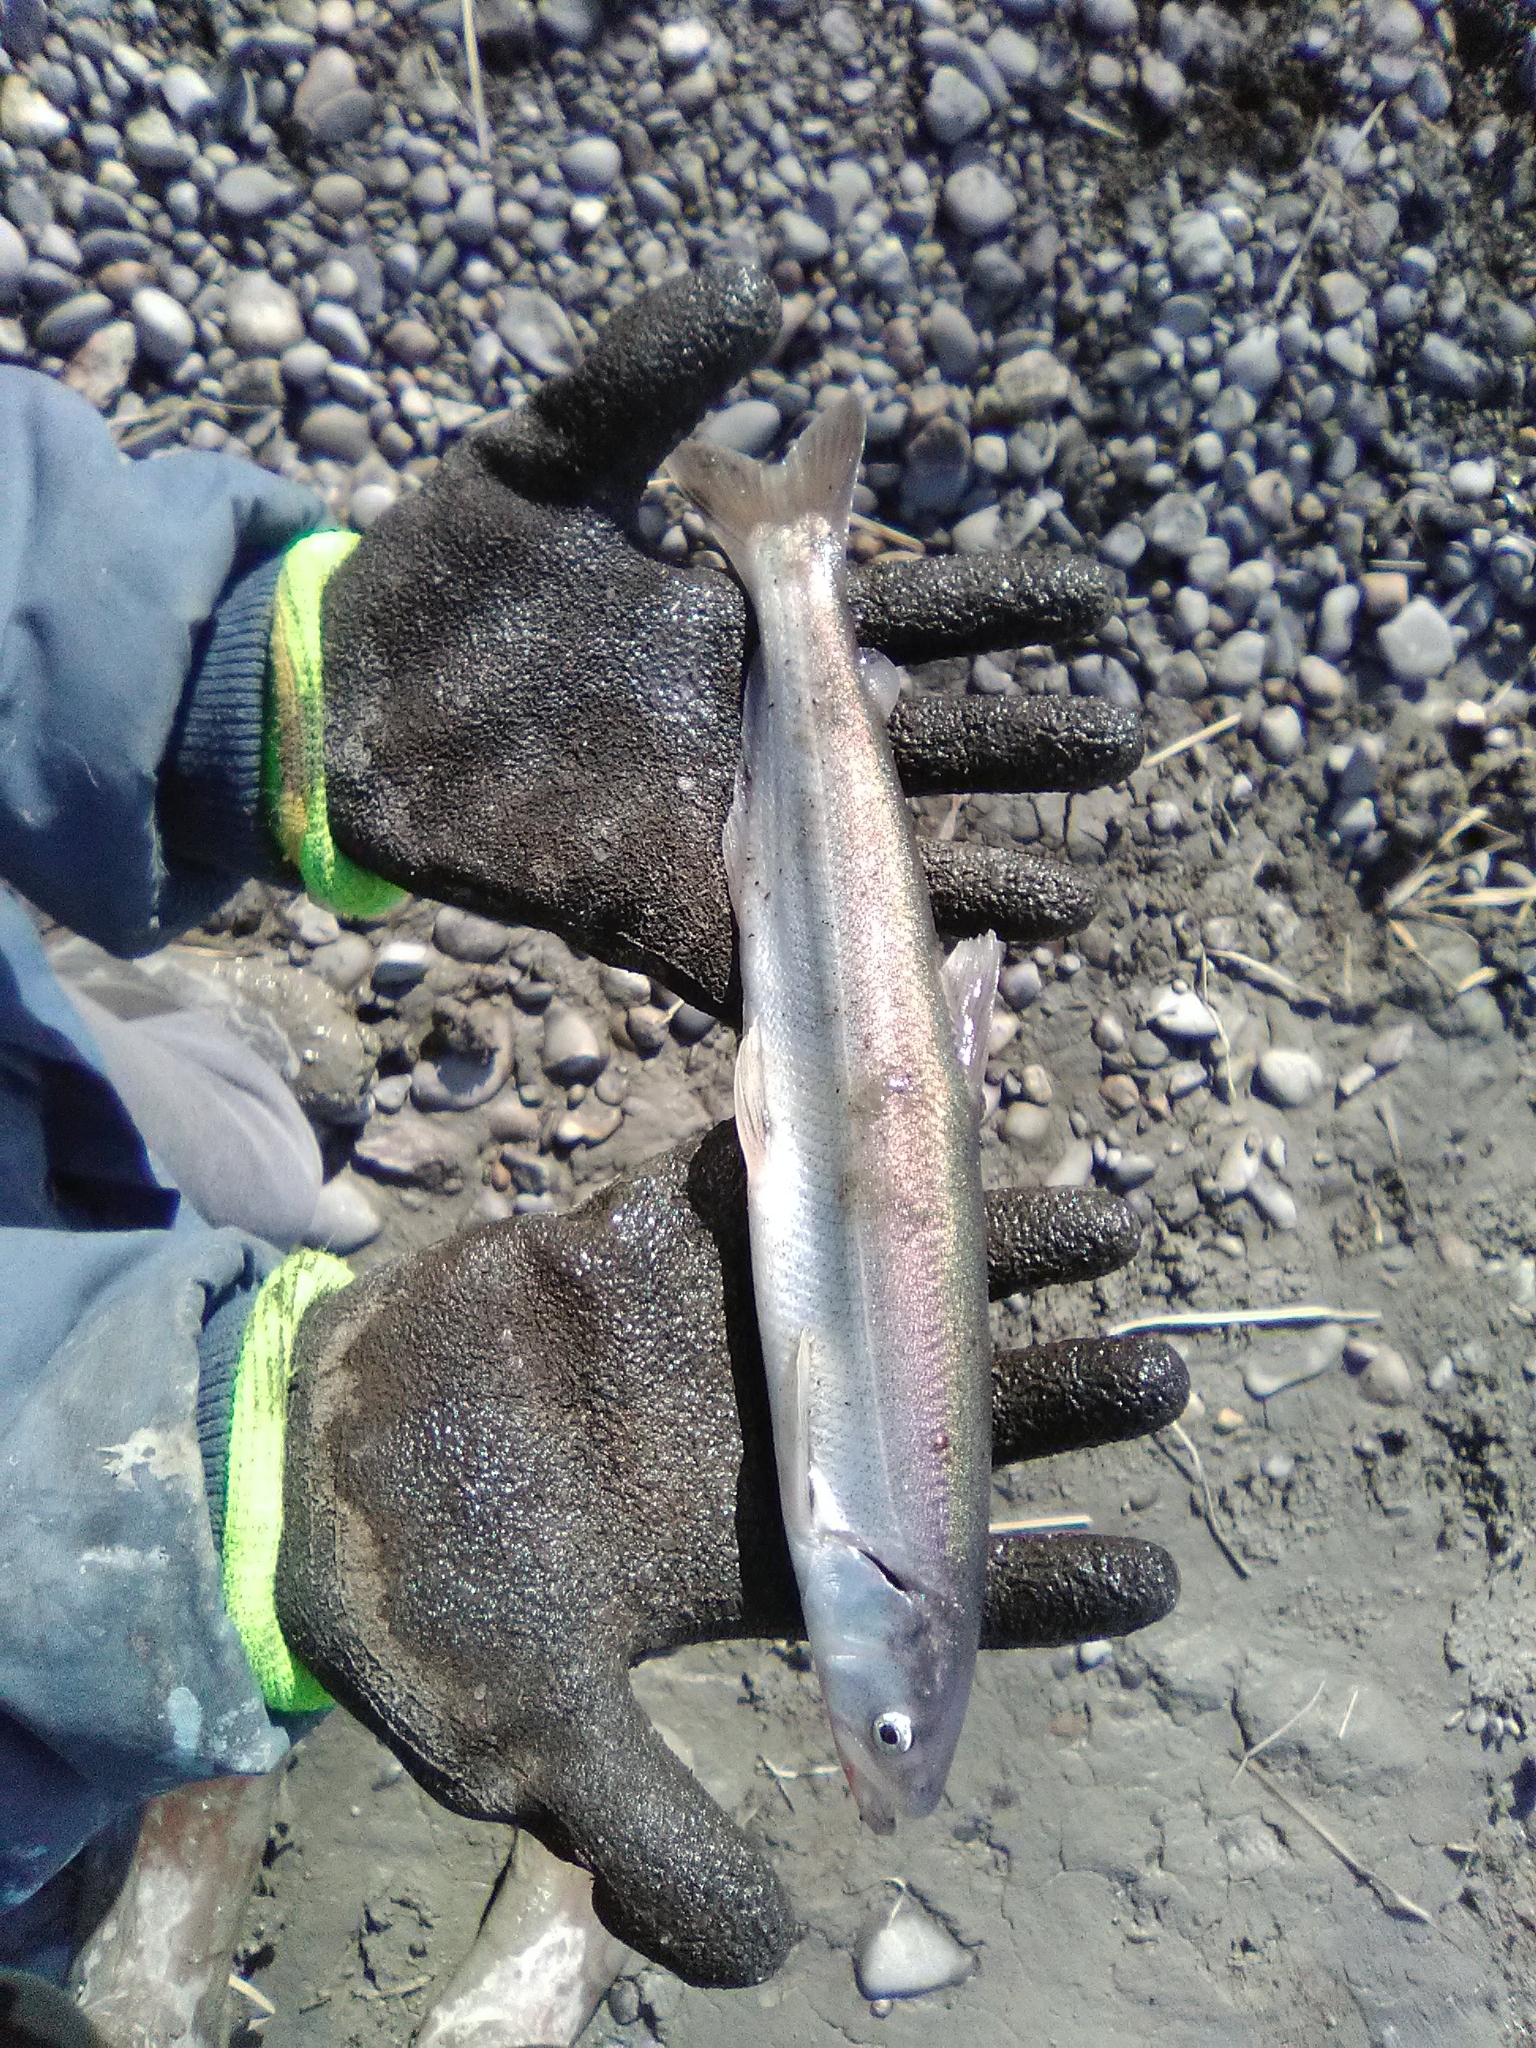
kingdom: Animalia
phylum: Chordata
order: Osmeriformes
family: Osmeridae
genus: Thaleichthys
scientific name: Thaleichthys pacificus
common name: Eulachon
